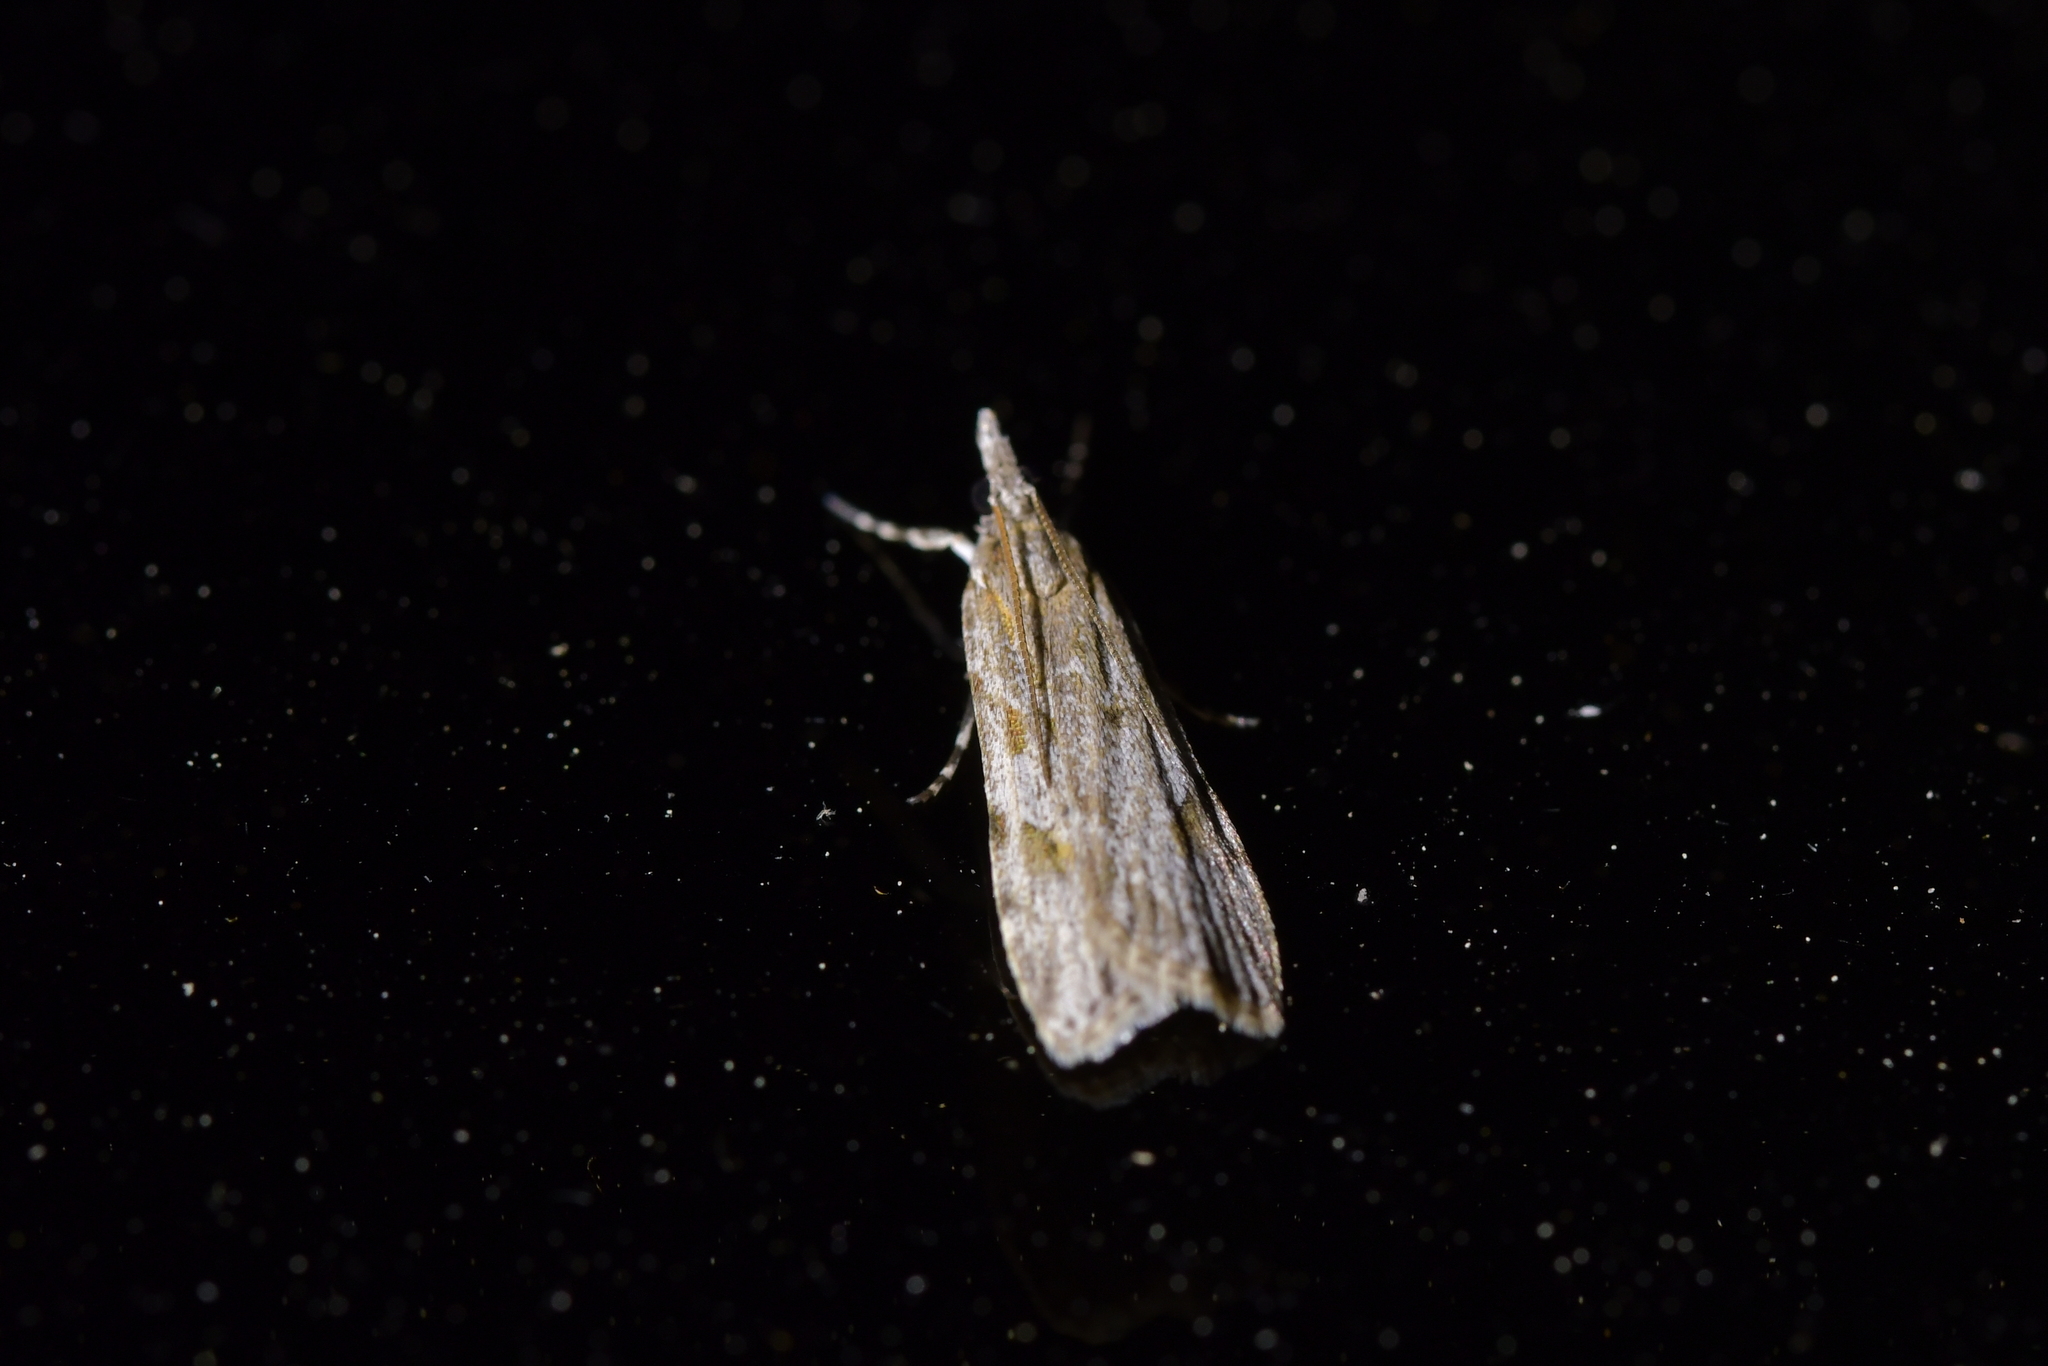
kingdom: Animalia
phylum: Arthropoda
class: Insecta
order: Lepidoptera
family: Crambidae
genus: Scoparia
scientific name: Scoparia chalicodes
